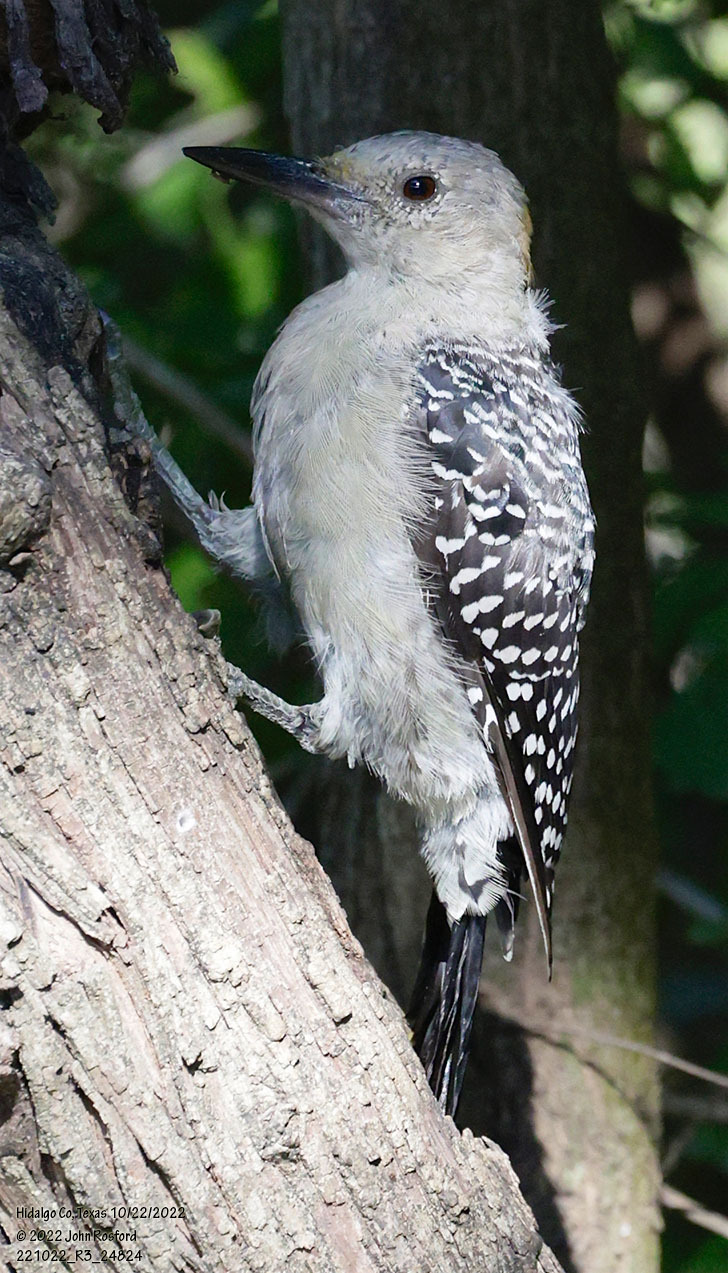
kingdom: Animalia
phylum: Chordata
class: Aves
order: Piciformes
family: Picidae
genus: Melanerpes
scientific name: Melanerpes aurifrons
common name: Golden-fronted woodpecker
